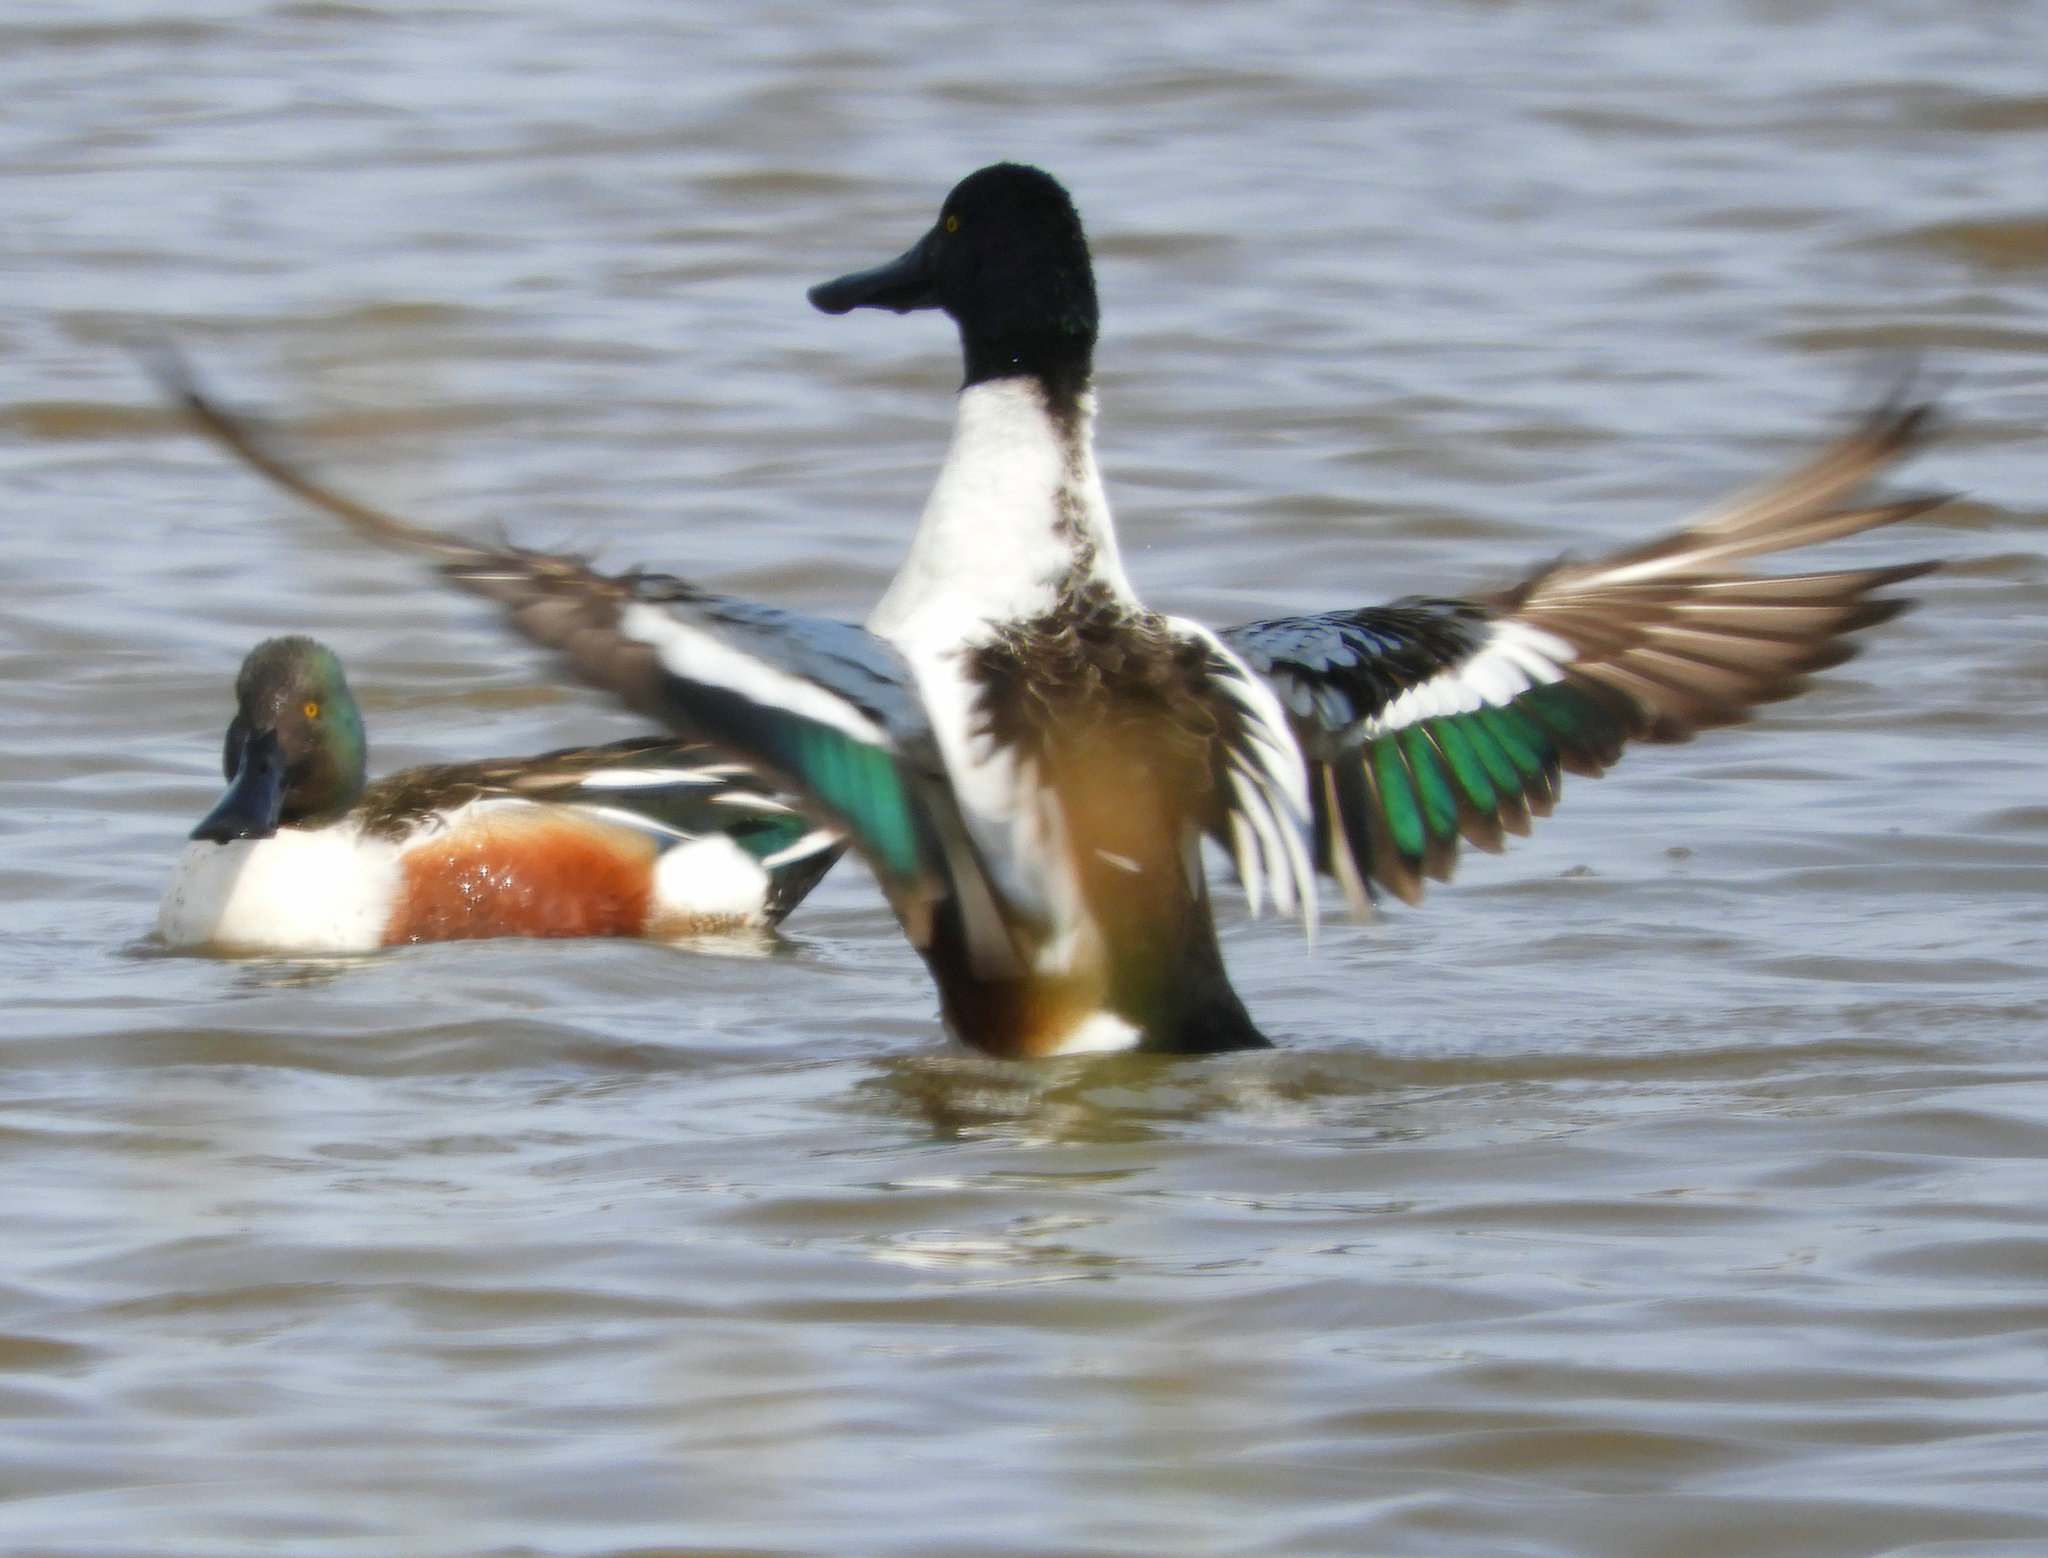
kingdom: Animalia
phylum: Chordata
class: Aves
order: Anseriformes
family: Anatidae
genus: Spatula
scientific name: Spatula clypeata
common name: Northern shoveler
